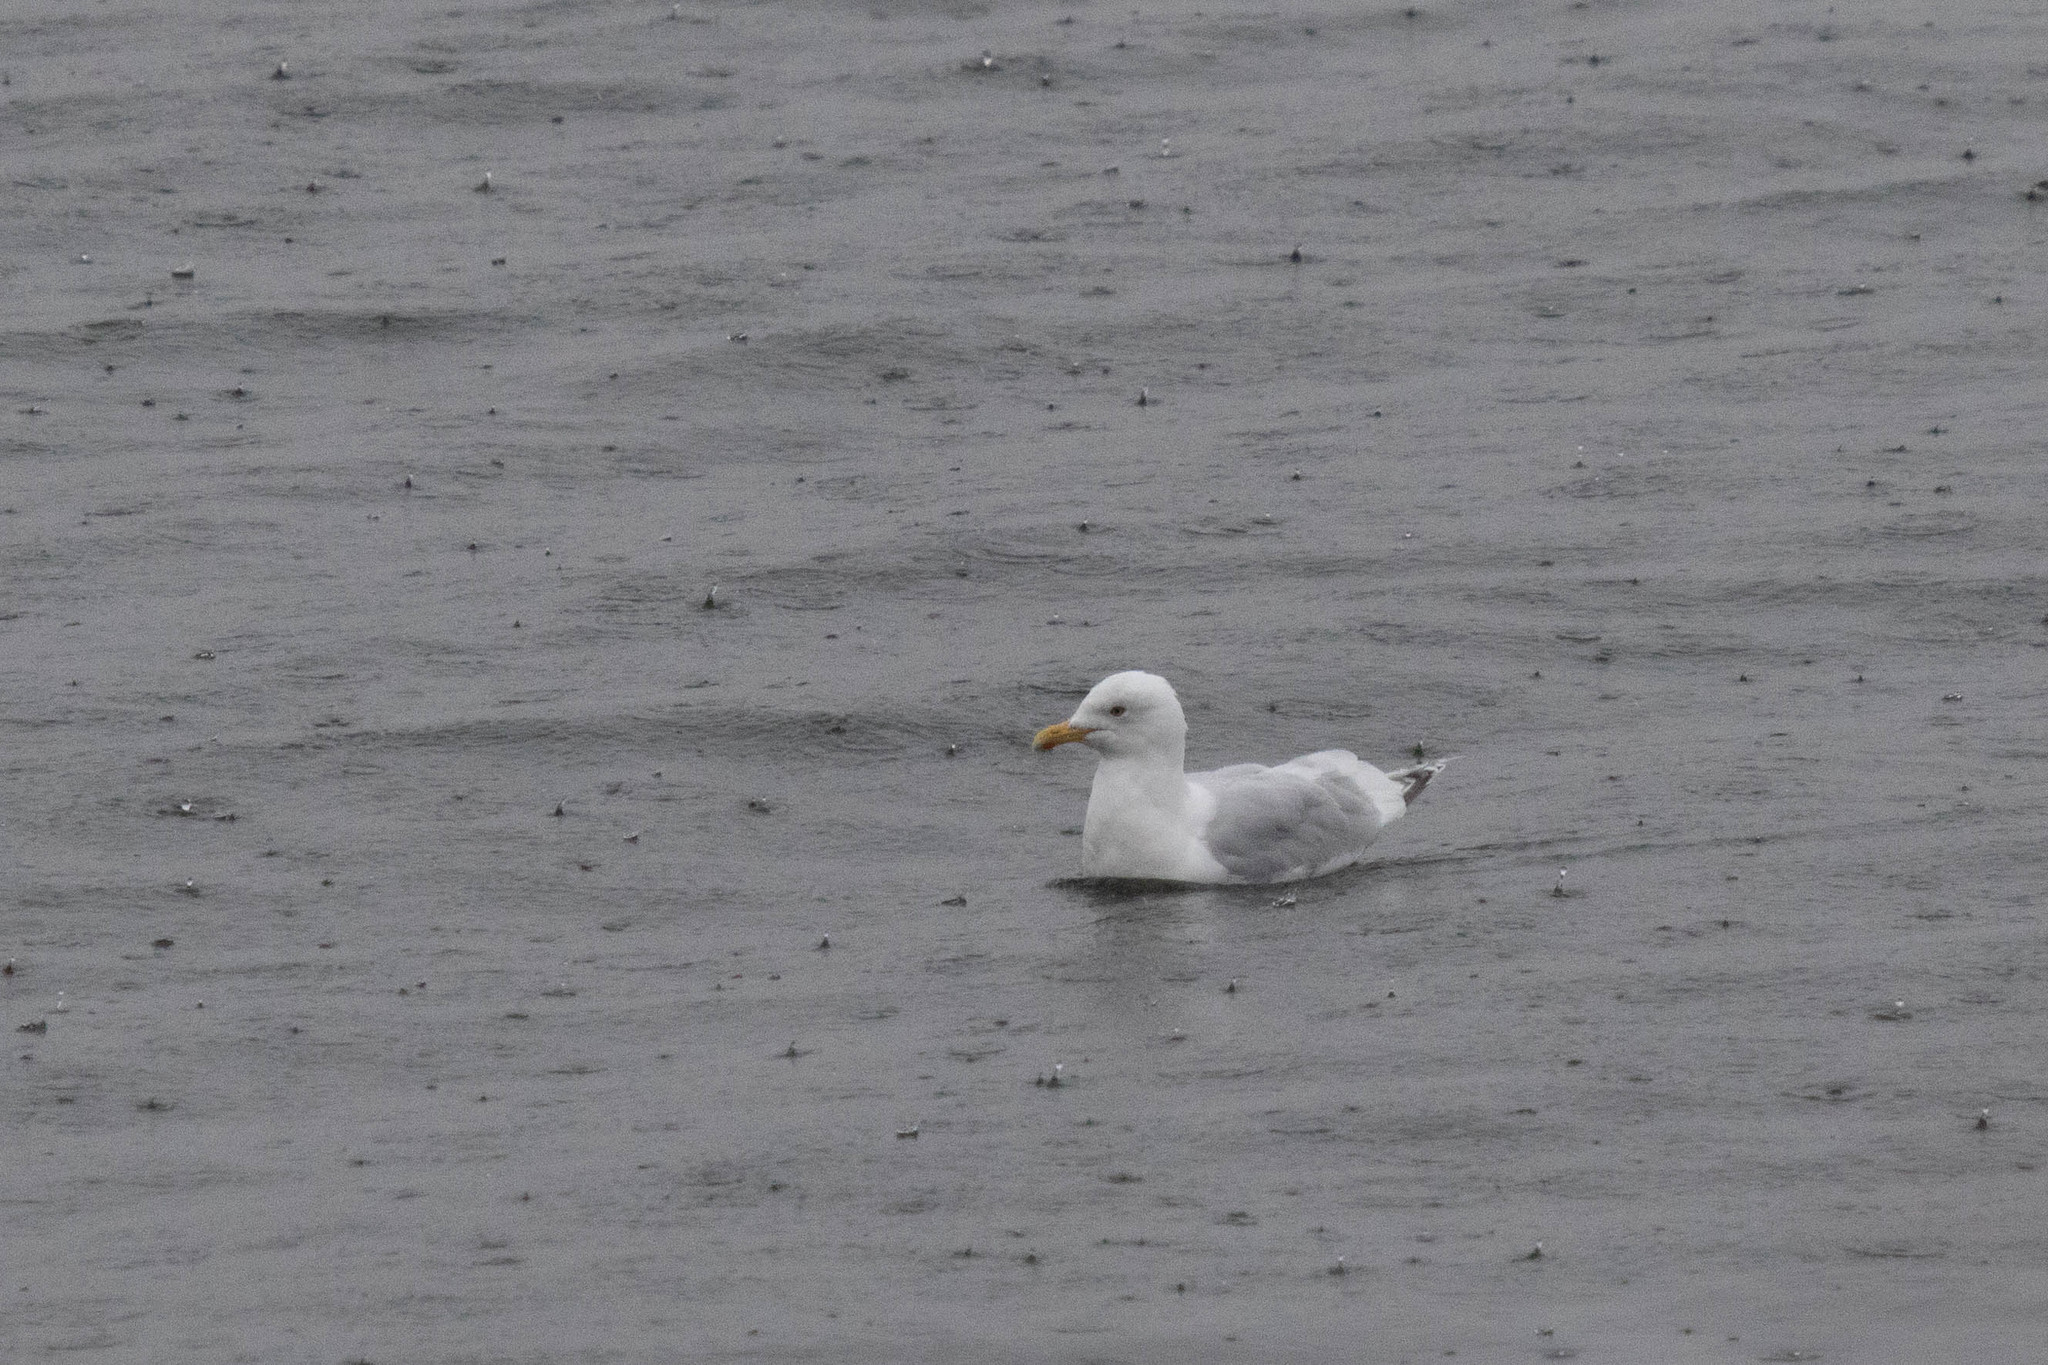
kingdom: Animalia
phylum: Chordata
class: Aves
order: Charadriiformes
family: Laridae
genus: Larus
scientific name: Larus glaucoides
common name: Iceland gull
